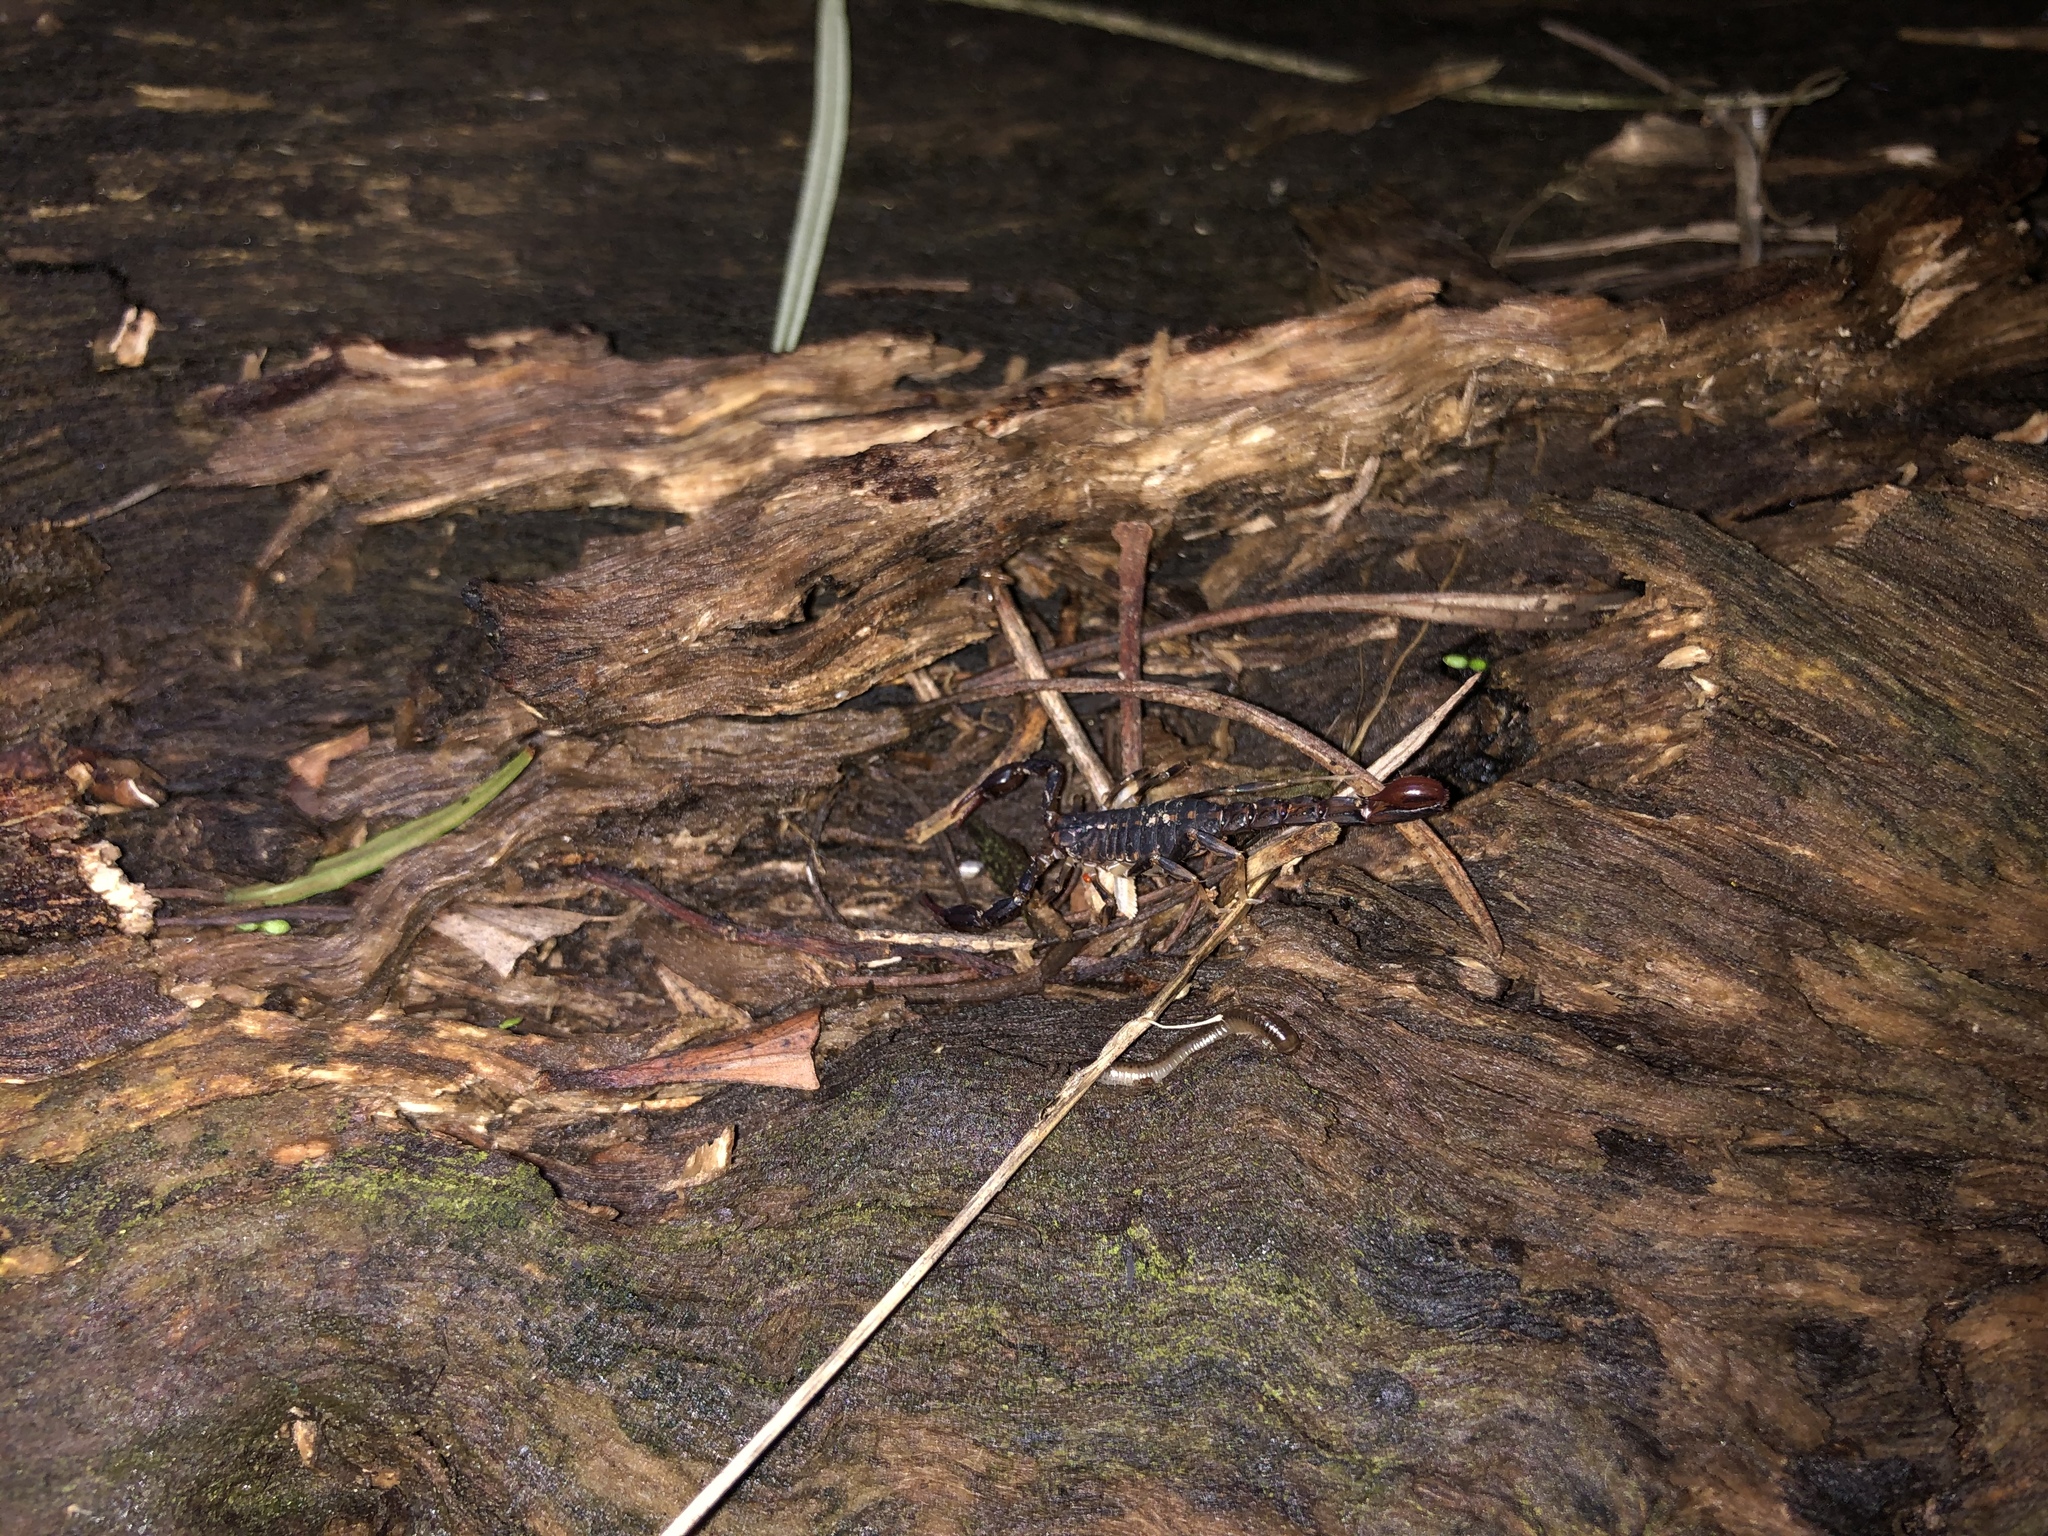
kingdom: Animalia
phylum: Arthropoda
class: Arachnida
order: Scorpiones
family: Bothriuridae
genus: Cercophonius
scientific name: Cercophonius squama
